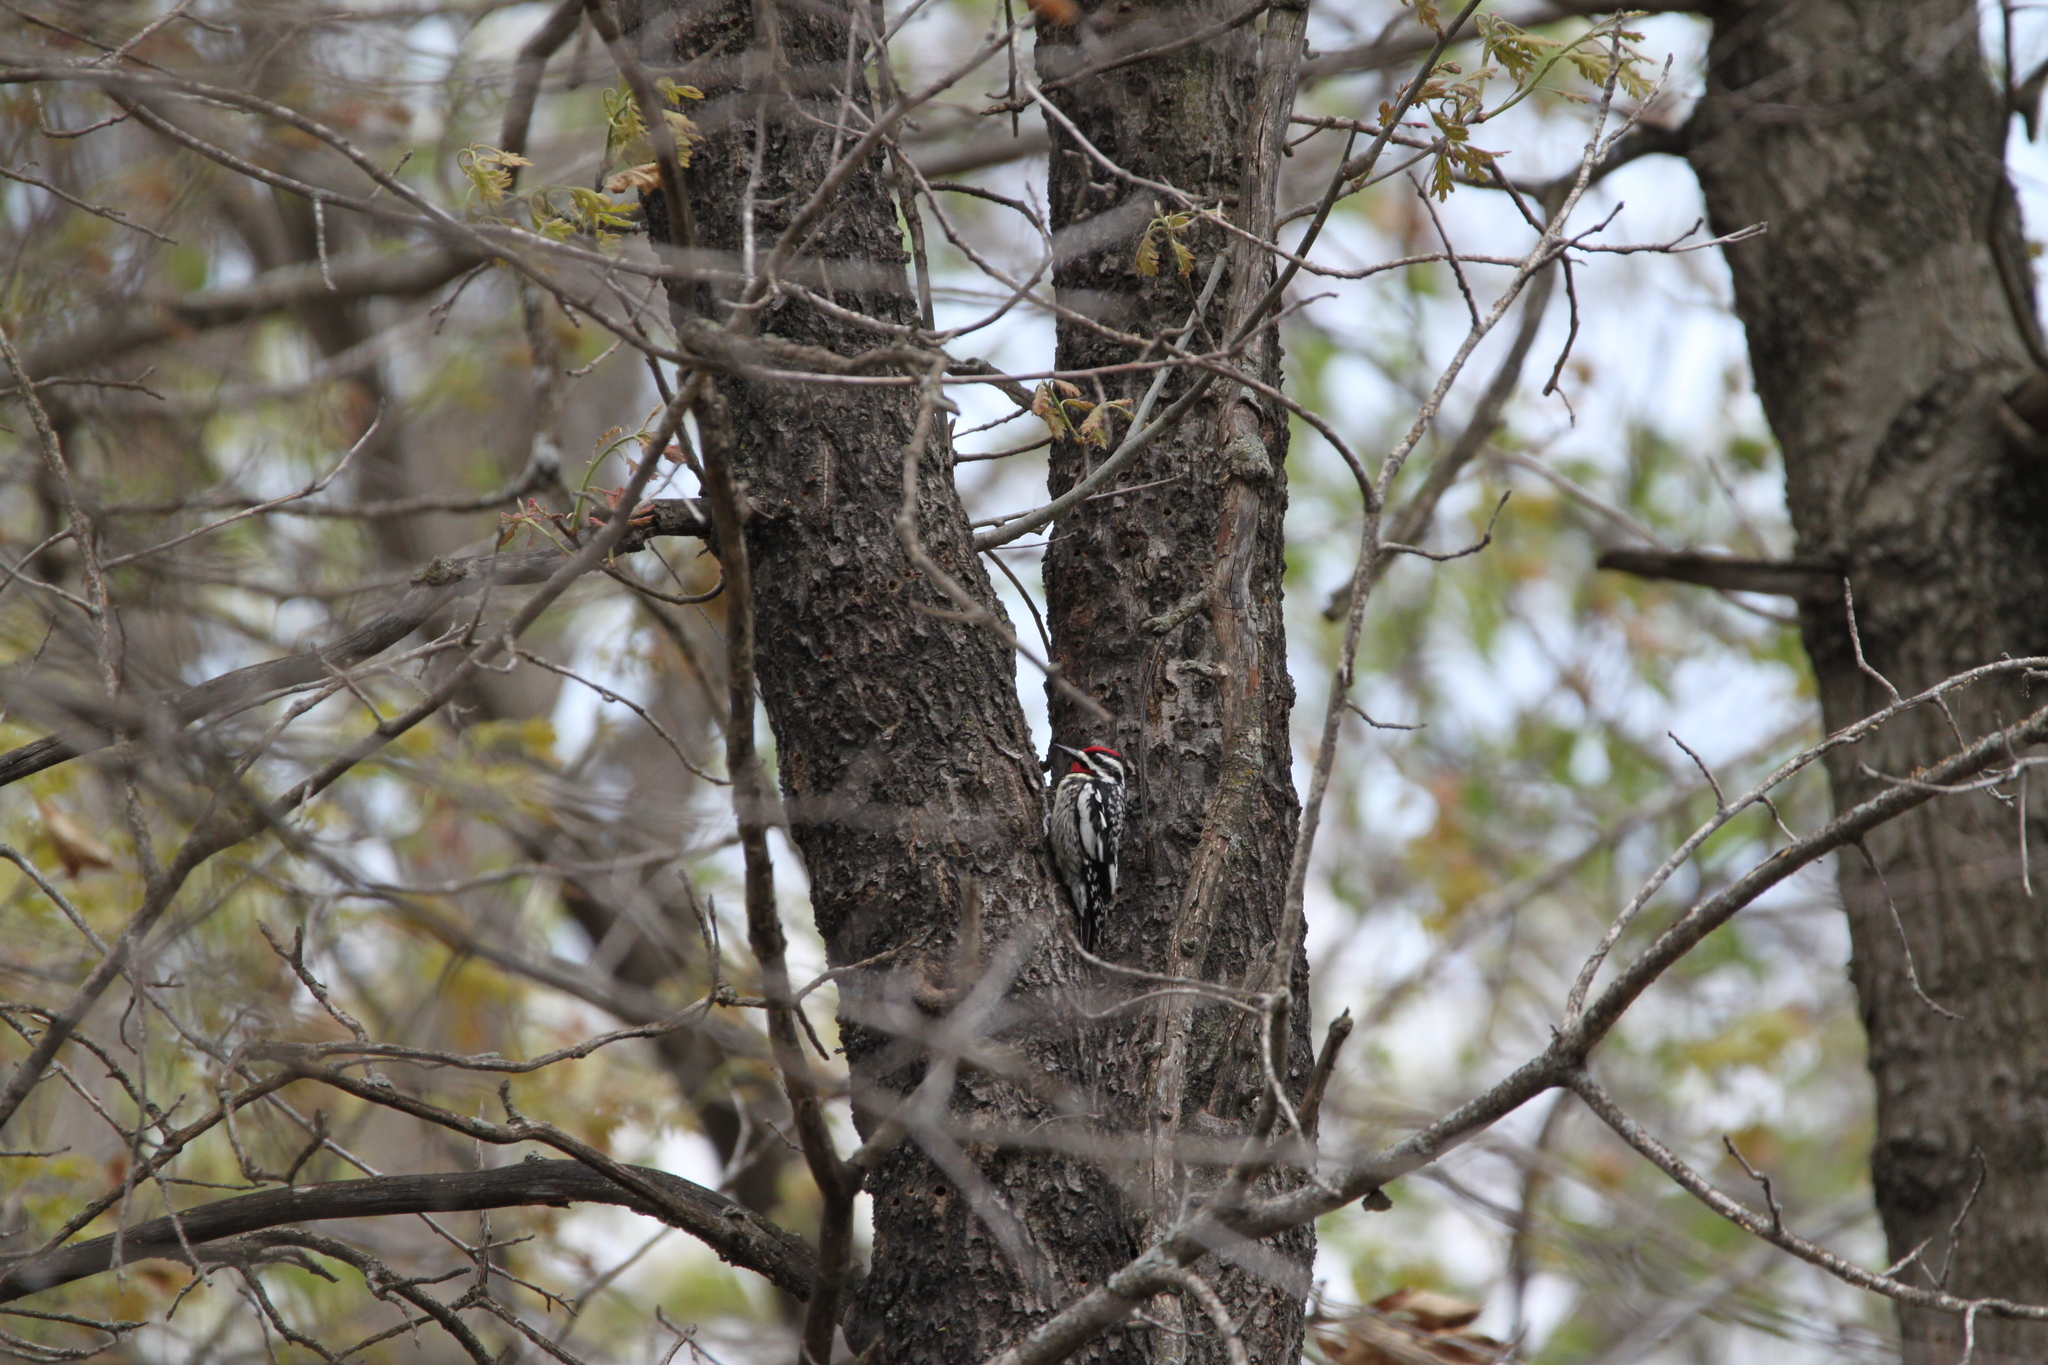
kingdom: Animalia
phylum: Chordata
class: Aves
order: Piciformes
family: Picidae
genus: Sphyrapicus
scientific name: Sphyrapicus varius
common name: Yellow-bellied sapsucker
